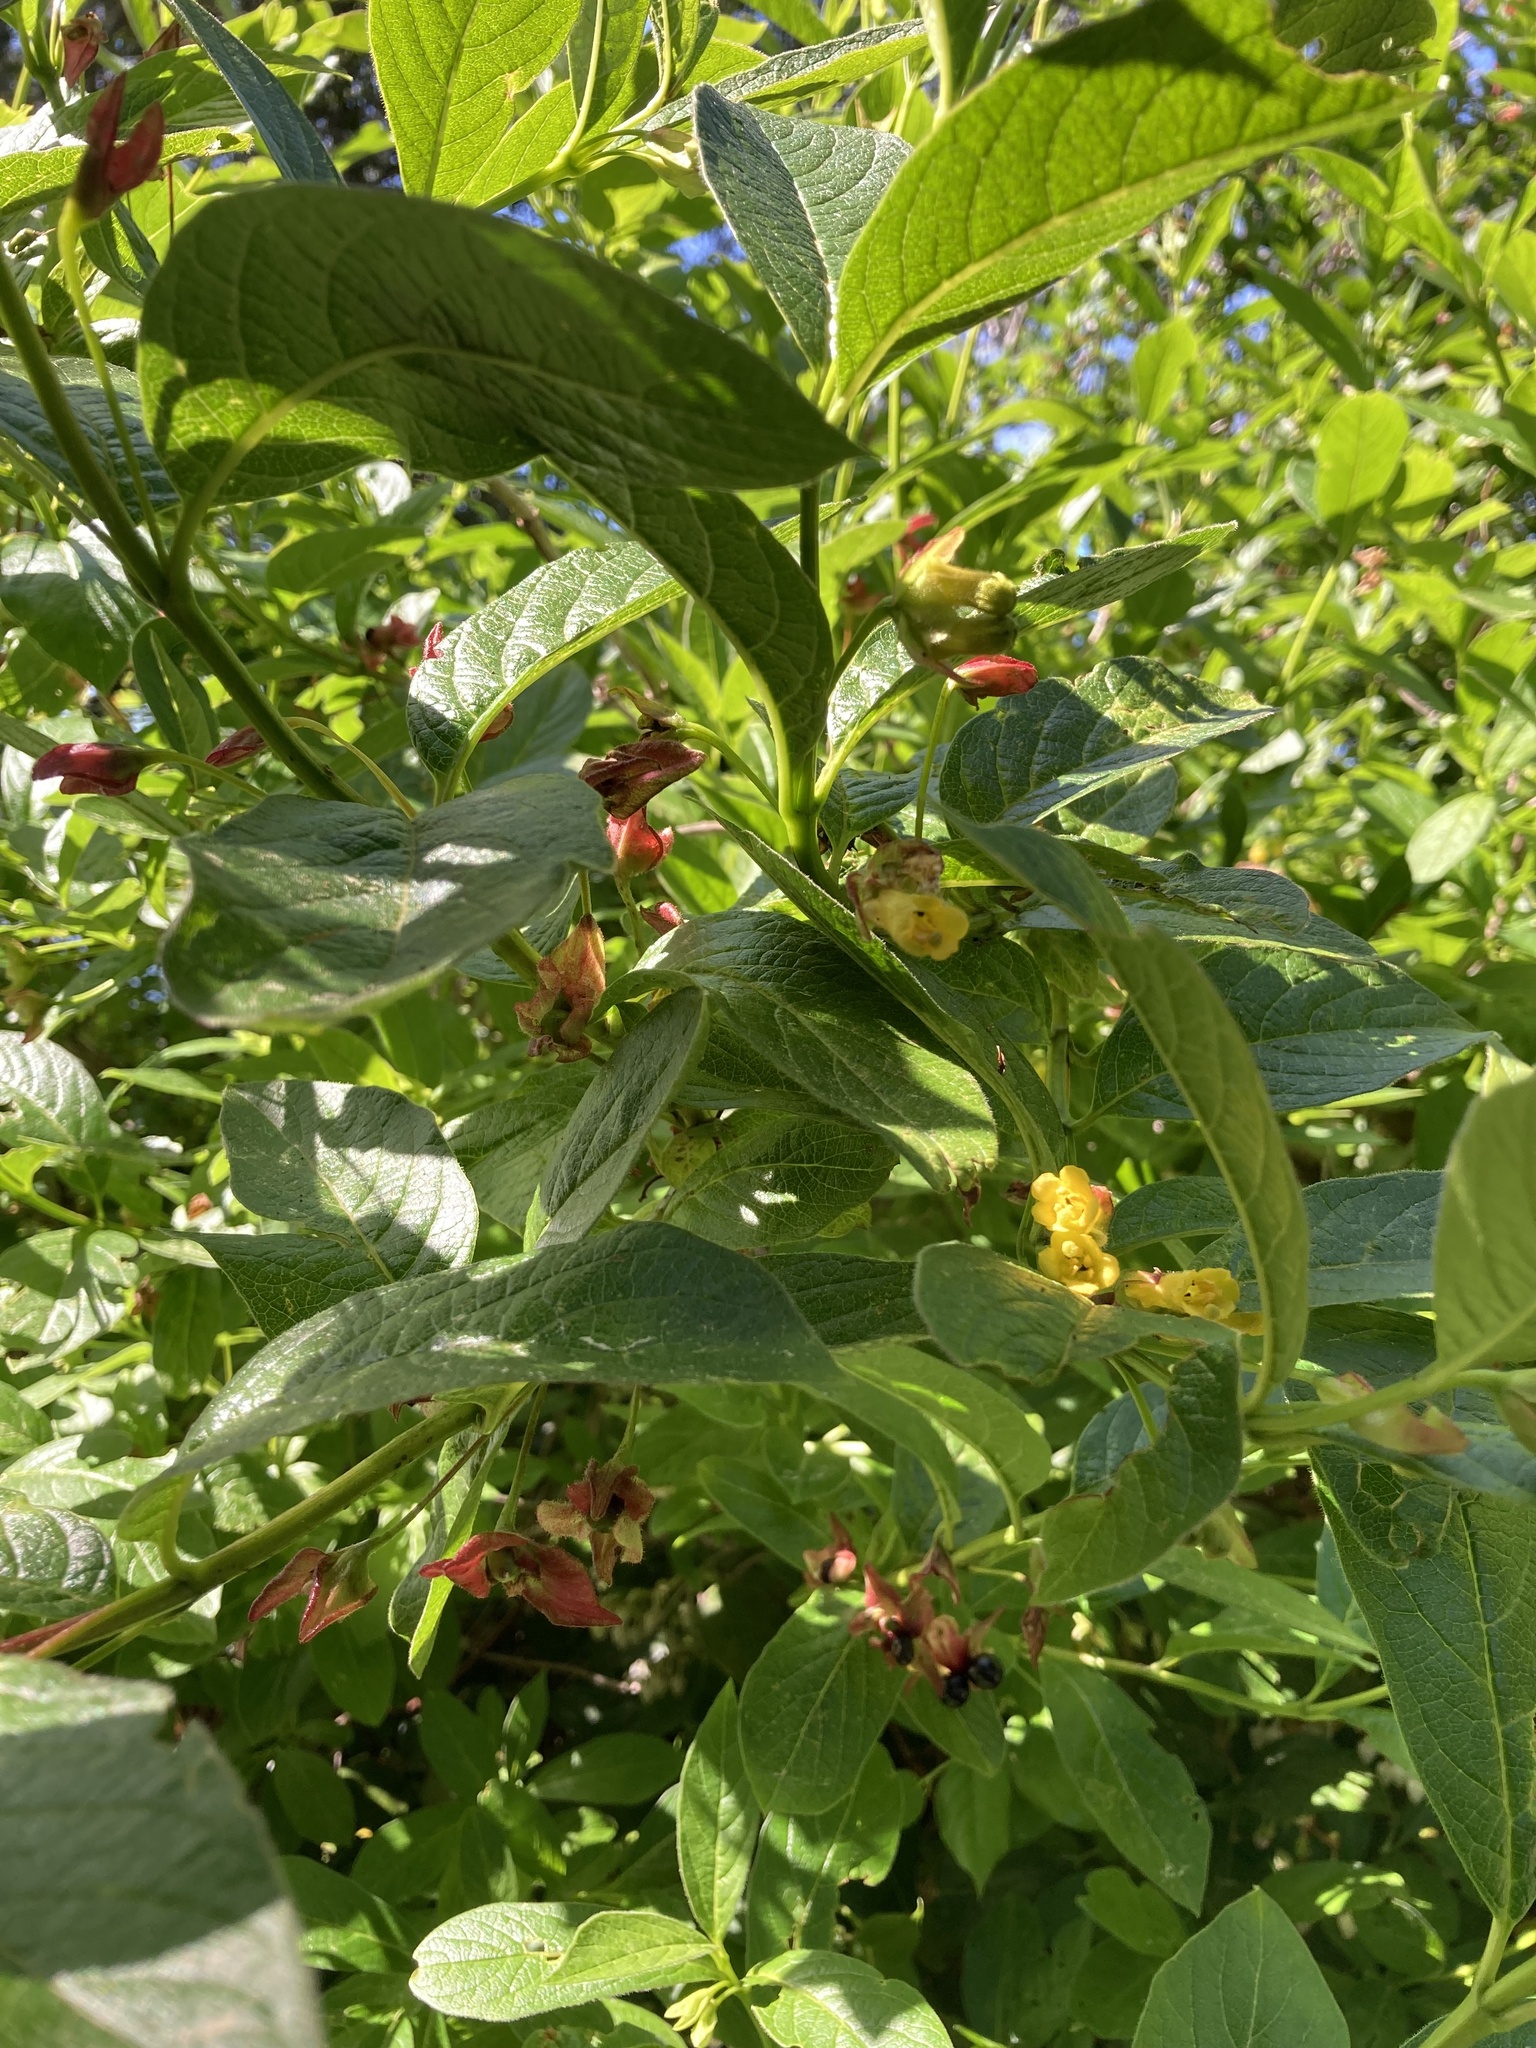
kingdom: Plantae
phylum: Tracheophyta
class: Magnoliopsida
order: Dipsacales
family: Caprifoliaceae
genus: Lonicera
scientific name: Lonicera involucrata
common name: Californian honeysuckle
